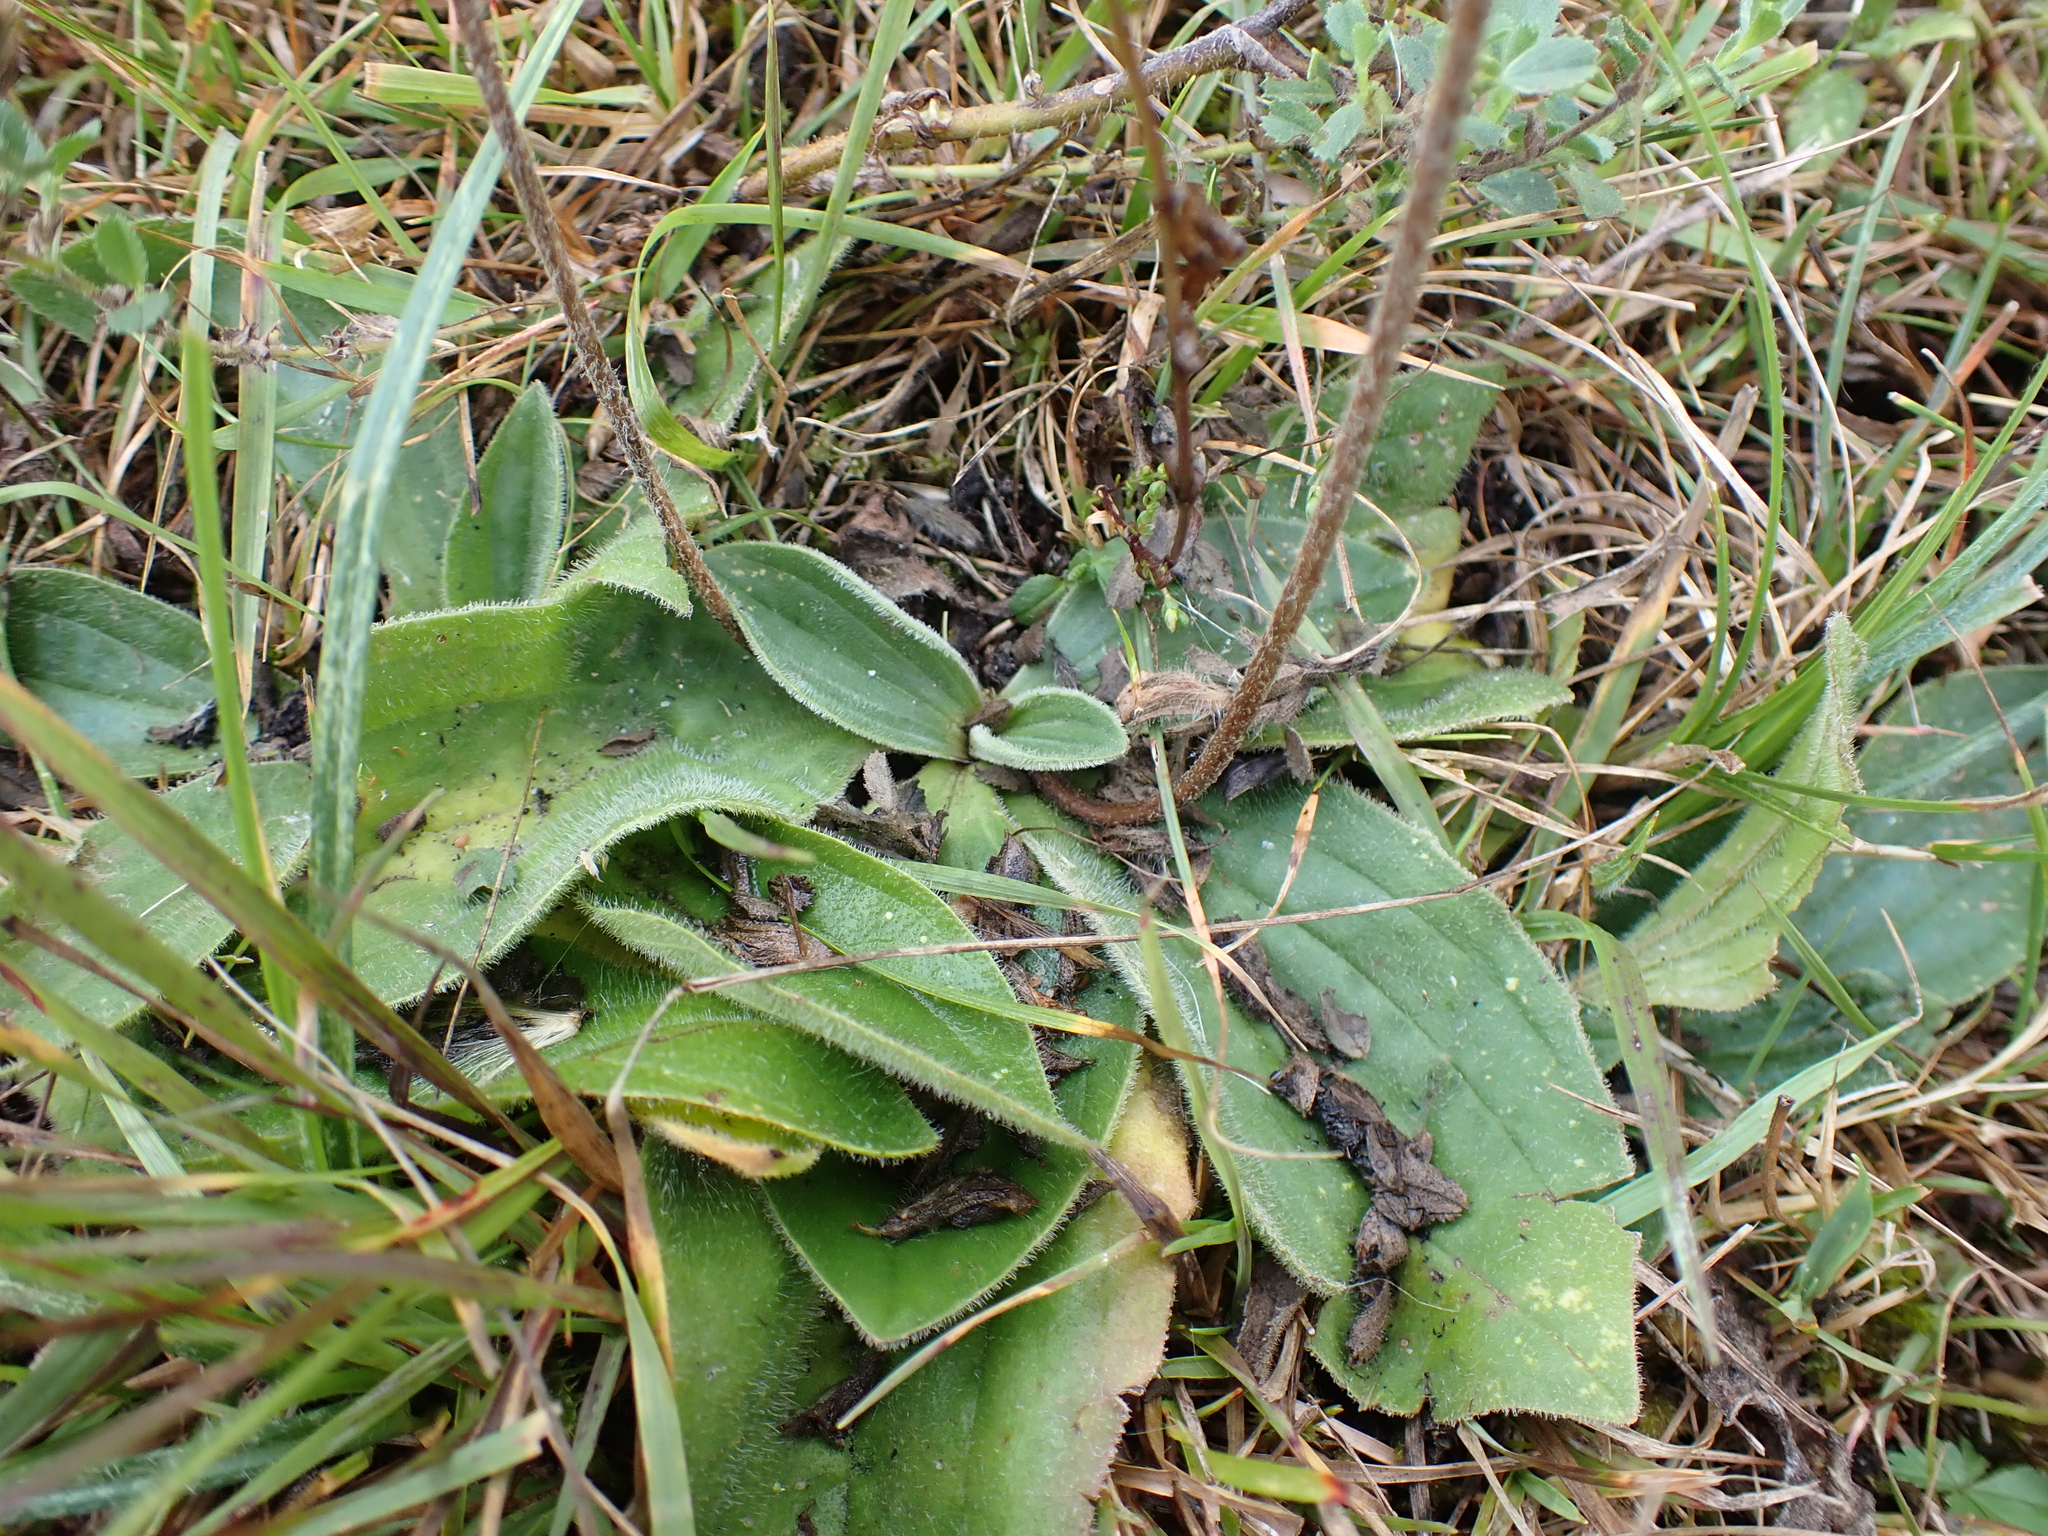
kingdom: Plantae
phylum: Tracheophyta
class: Magnoliopsida
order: Lamiales
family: Plantaginaceae
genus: Plantago
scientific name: Plantago media
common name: Hoary plantain
